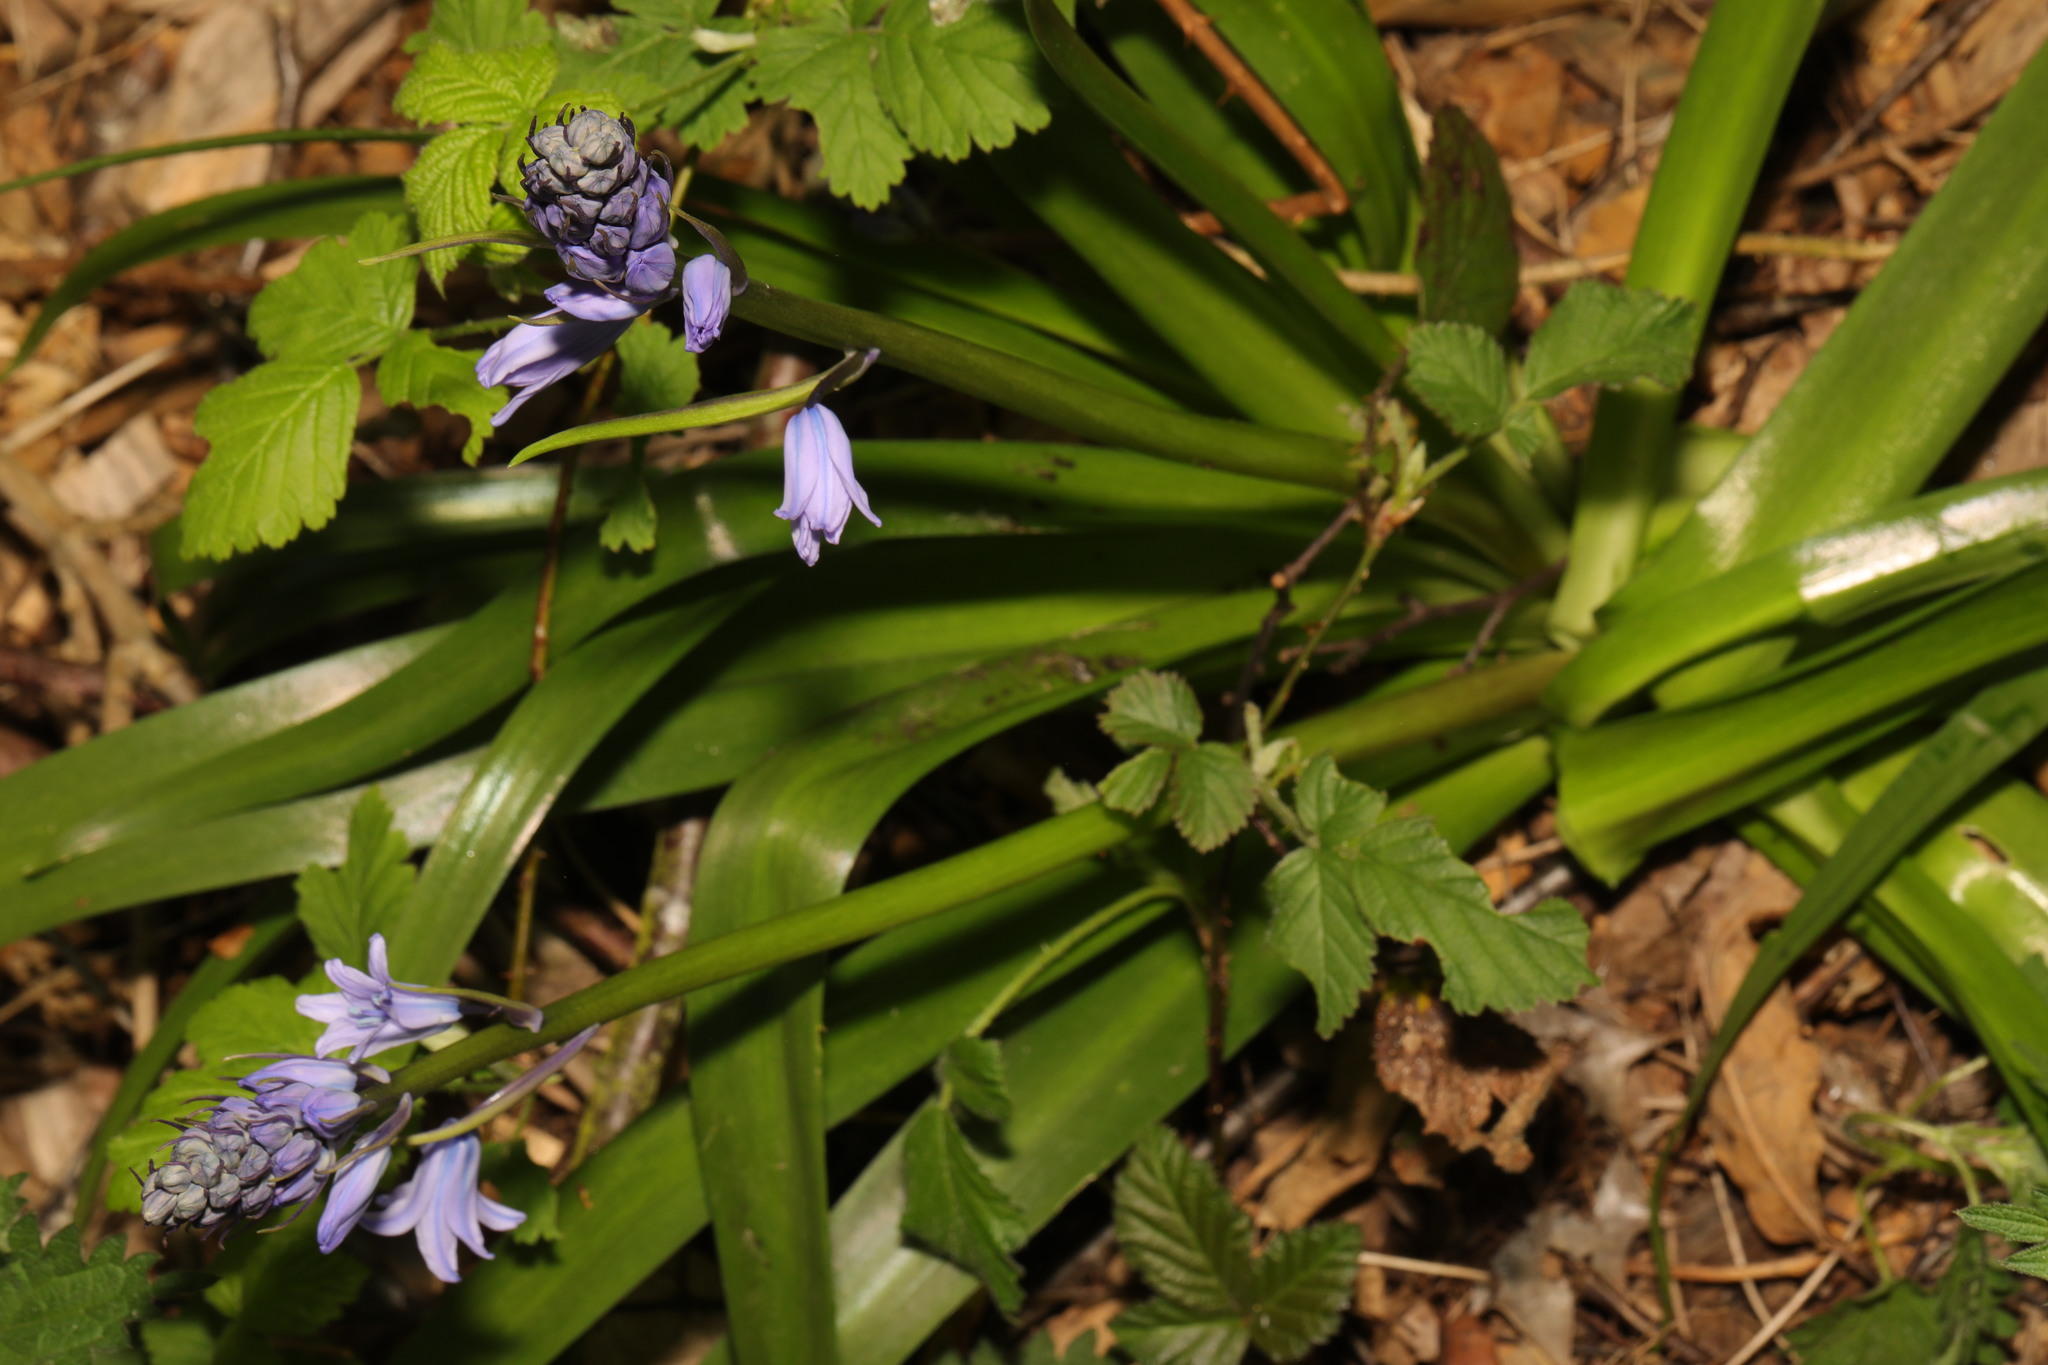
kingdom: Plantae
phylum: Tracheophyta
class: Liliopsida
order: Asparagales
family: Asparagaceae
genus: Hyacinthoides
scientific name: Hyacinthoides massartiana
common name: Hyacinthoides
